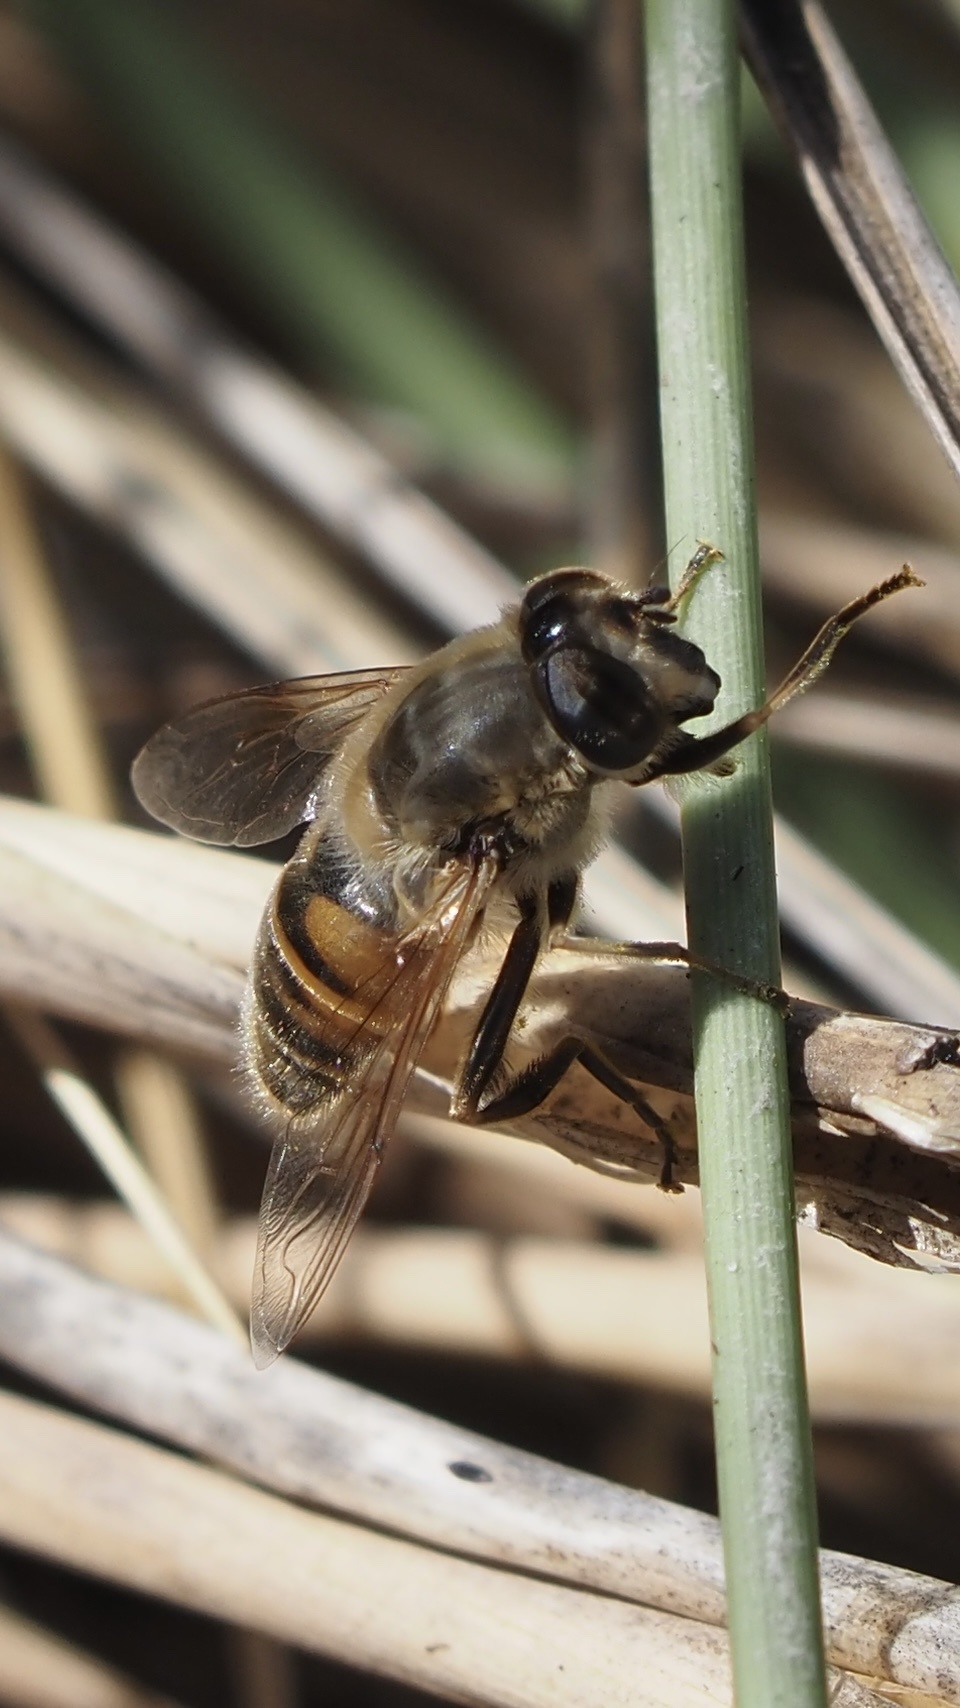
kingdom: Animalia
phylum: Arthropoda
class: Insecta
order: Diptera
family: Syrphidae
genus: Eristalis
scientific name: Eristalis tenax
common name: Drone fly
